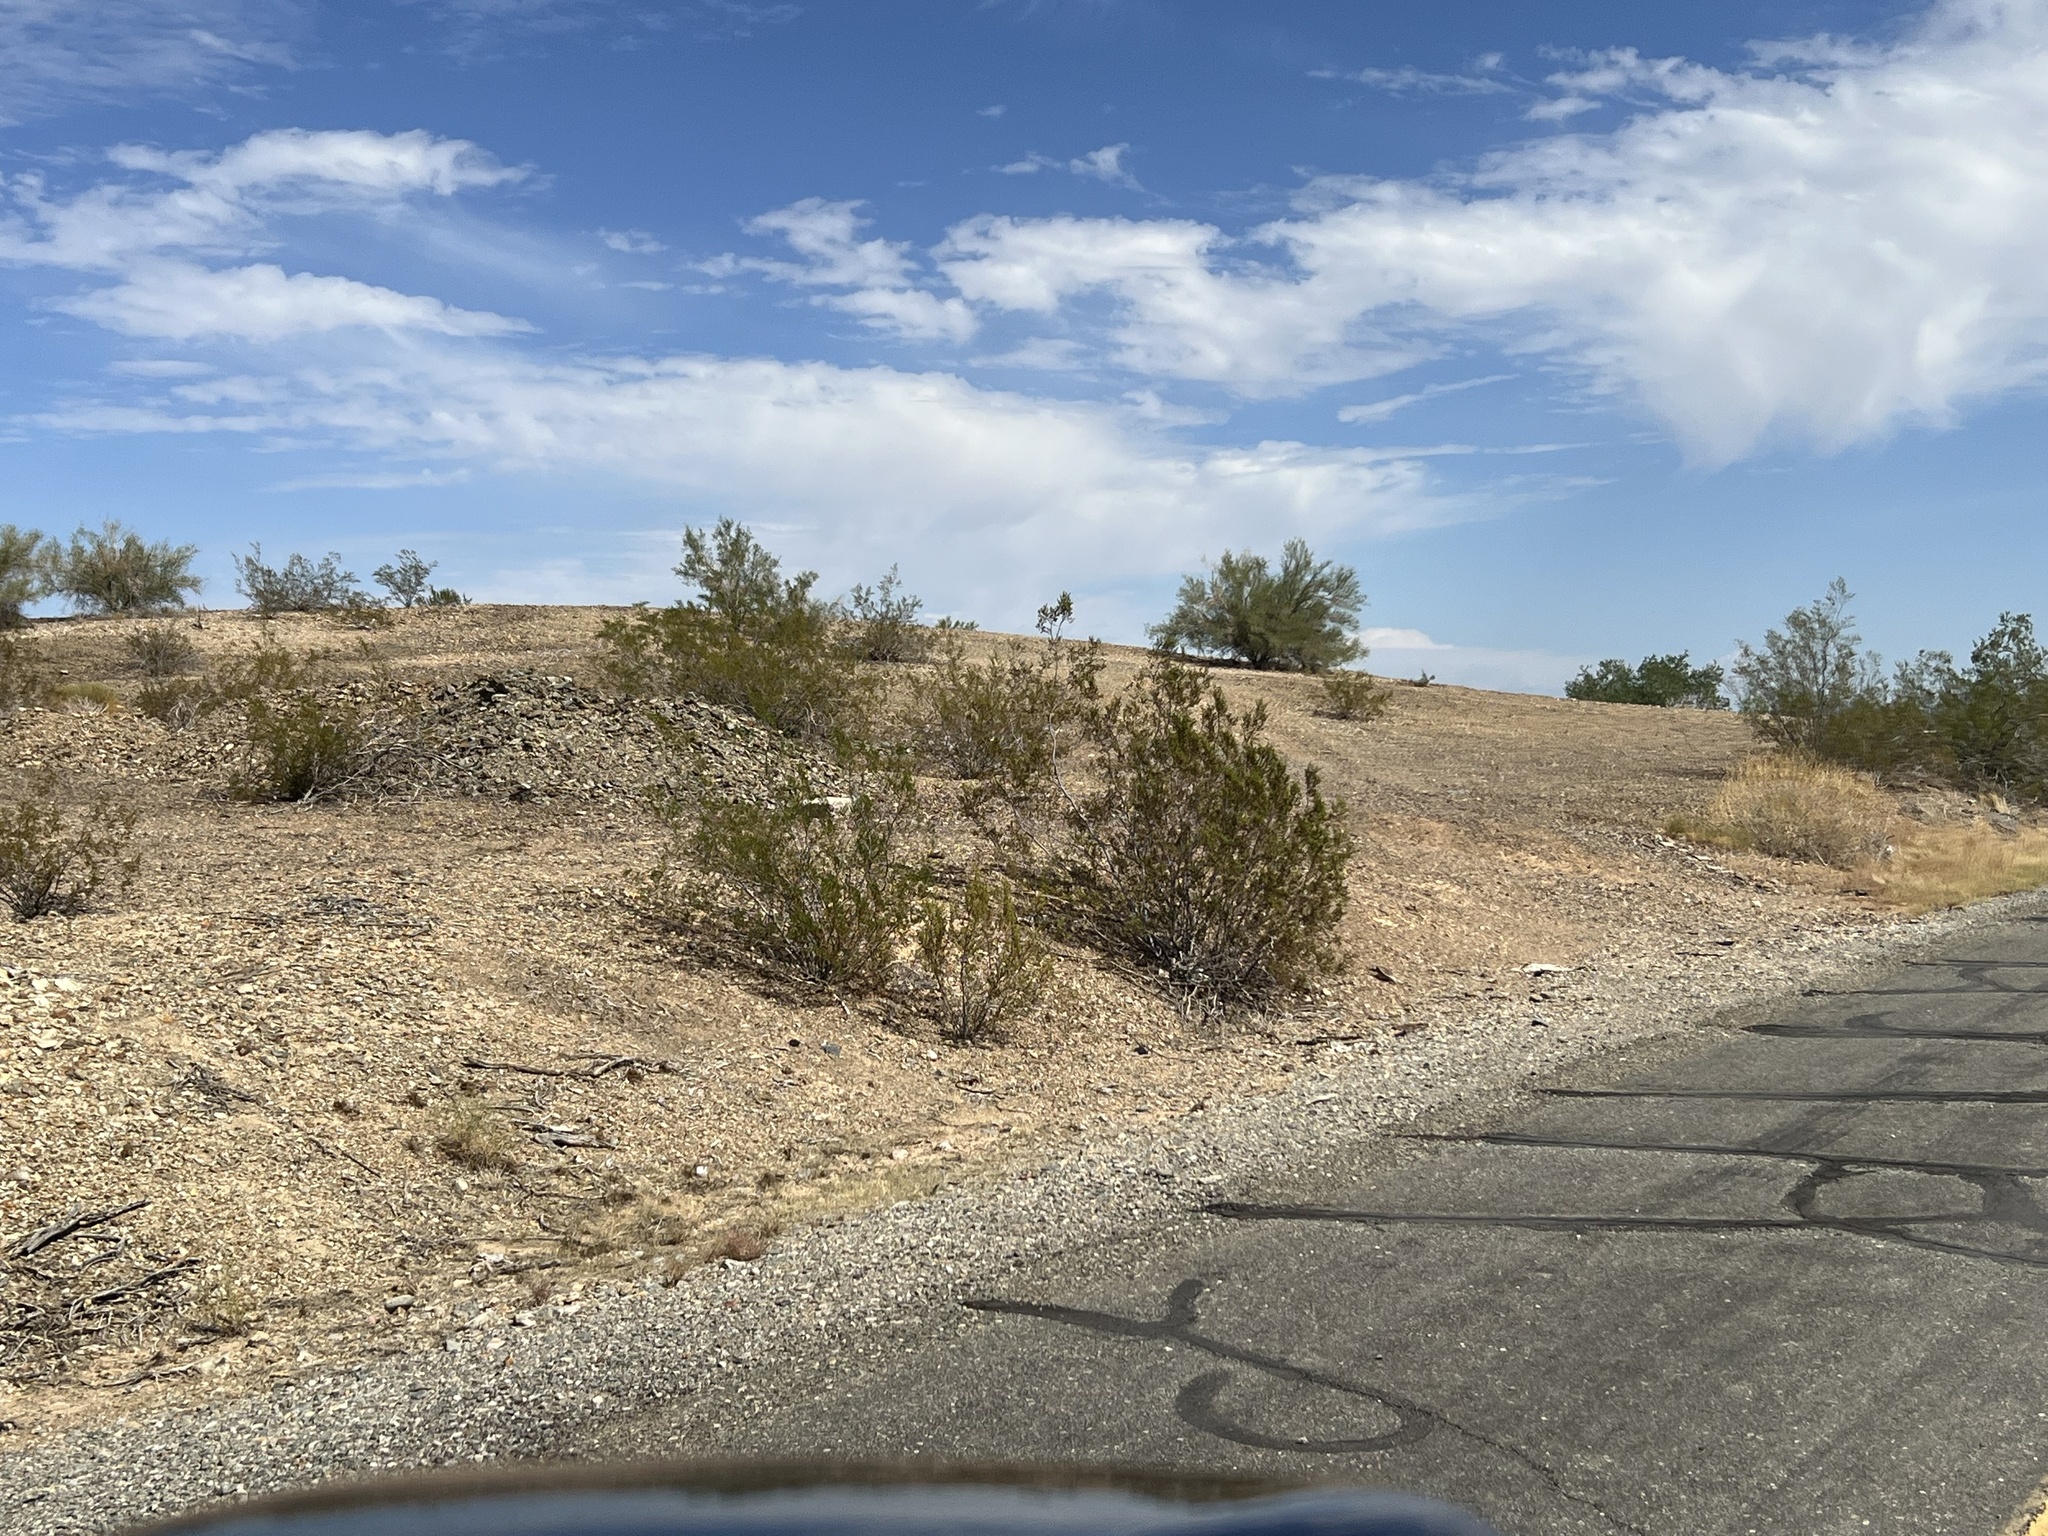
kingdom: Plantae
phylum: Tracheophyta
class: Magnoliopsida
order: Zygophyllales
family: Zygophyllaceae
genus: Larrea
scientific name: Larrea tridentata
